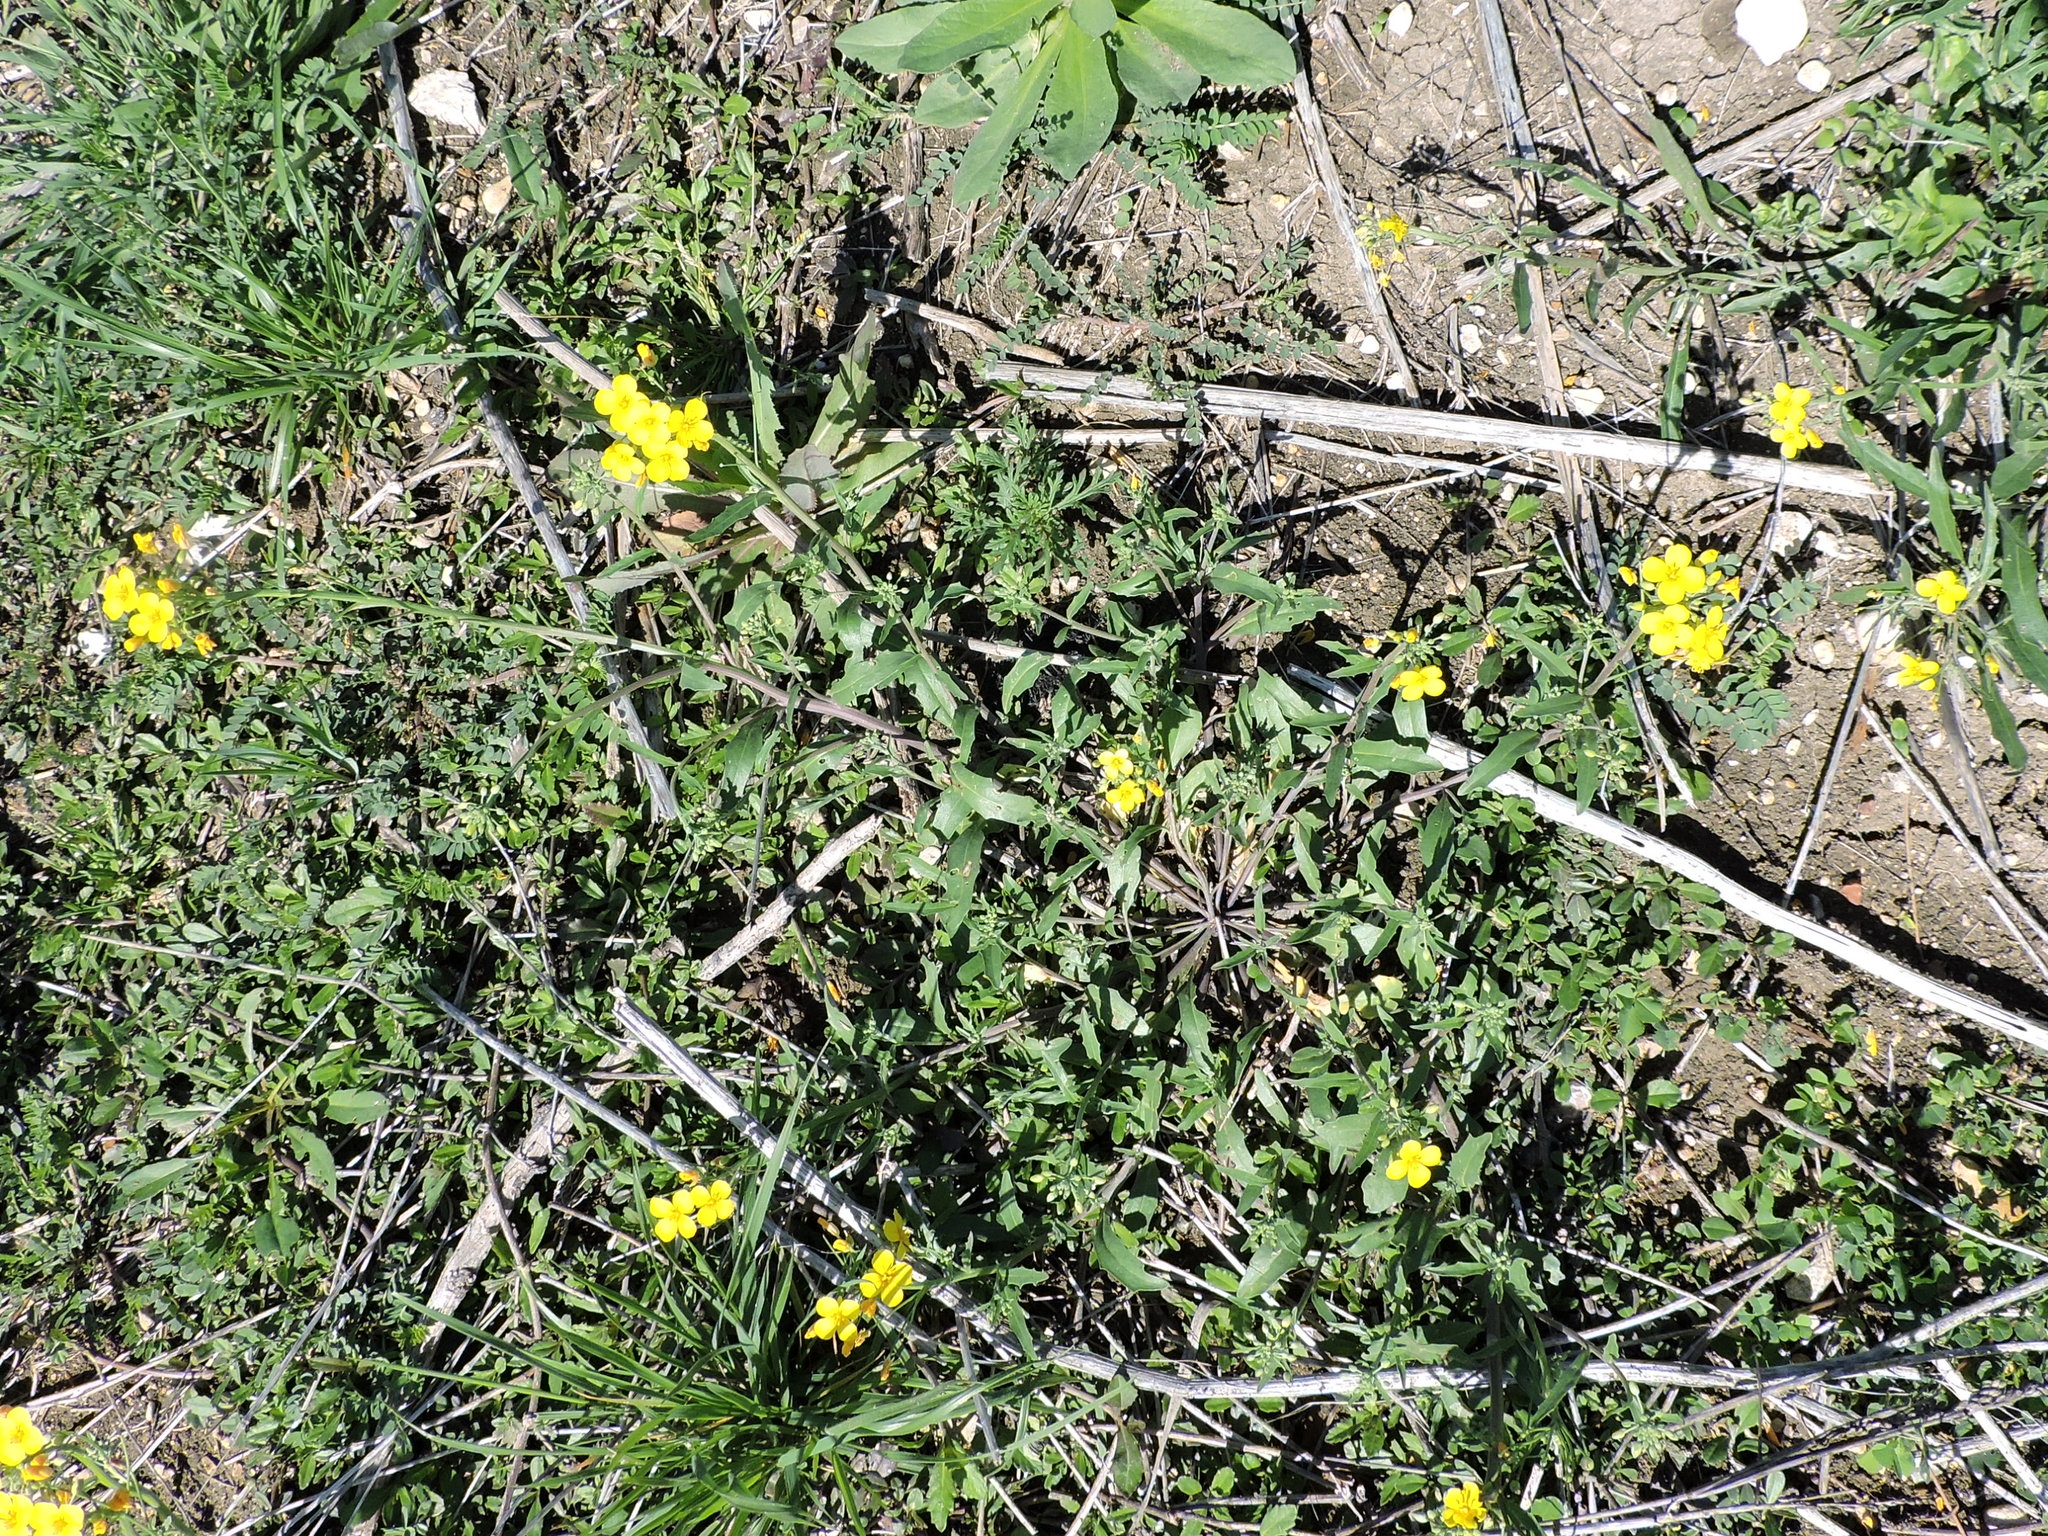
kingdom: Plantae
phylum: Tracheophyta
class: Magnoliopsida
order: Brassicales
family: Brassicaceae
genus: Physaria
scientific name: Physaria gracilis
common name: Spreading bladderpod
